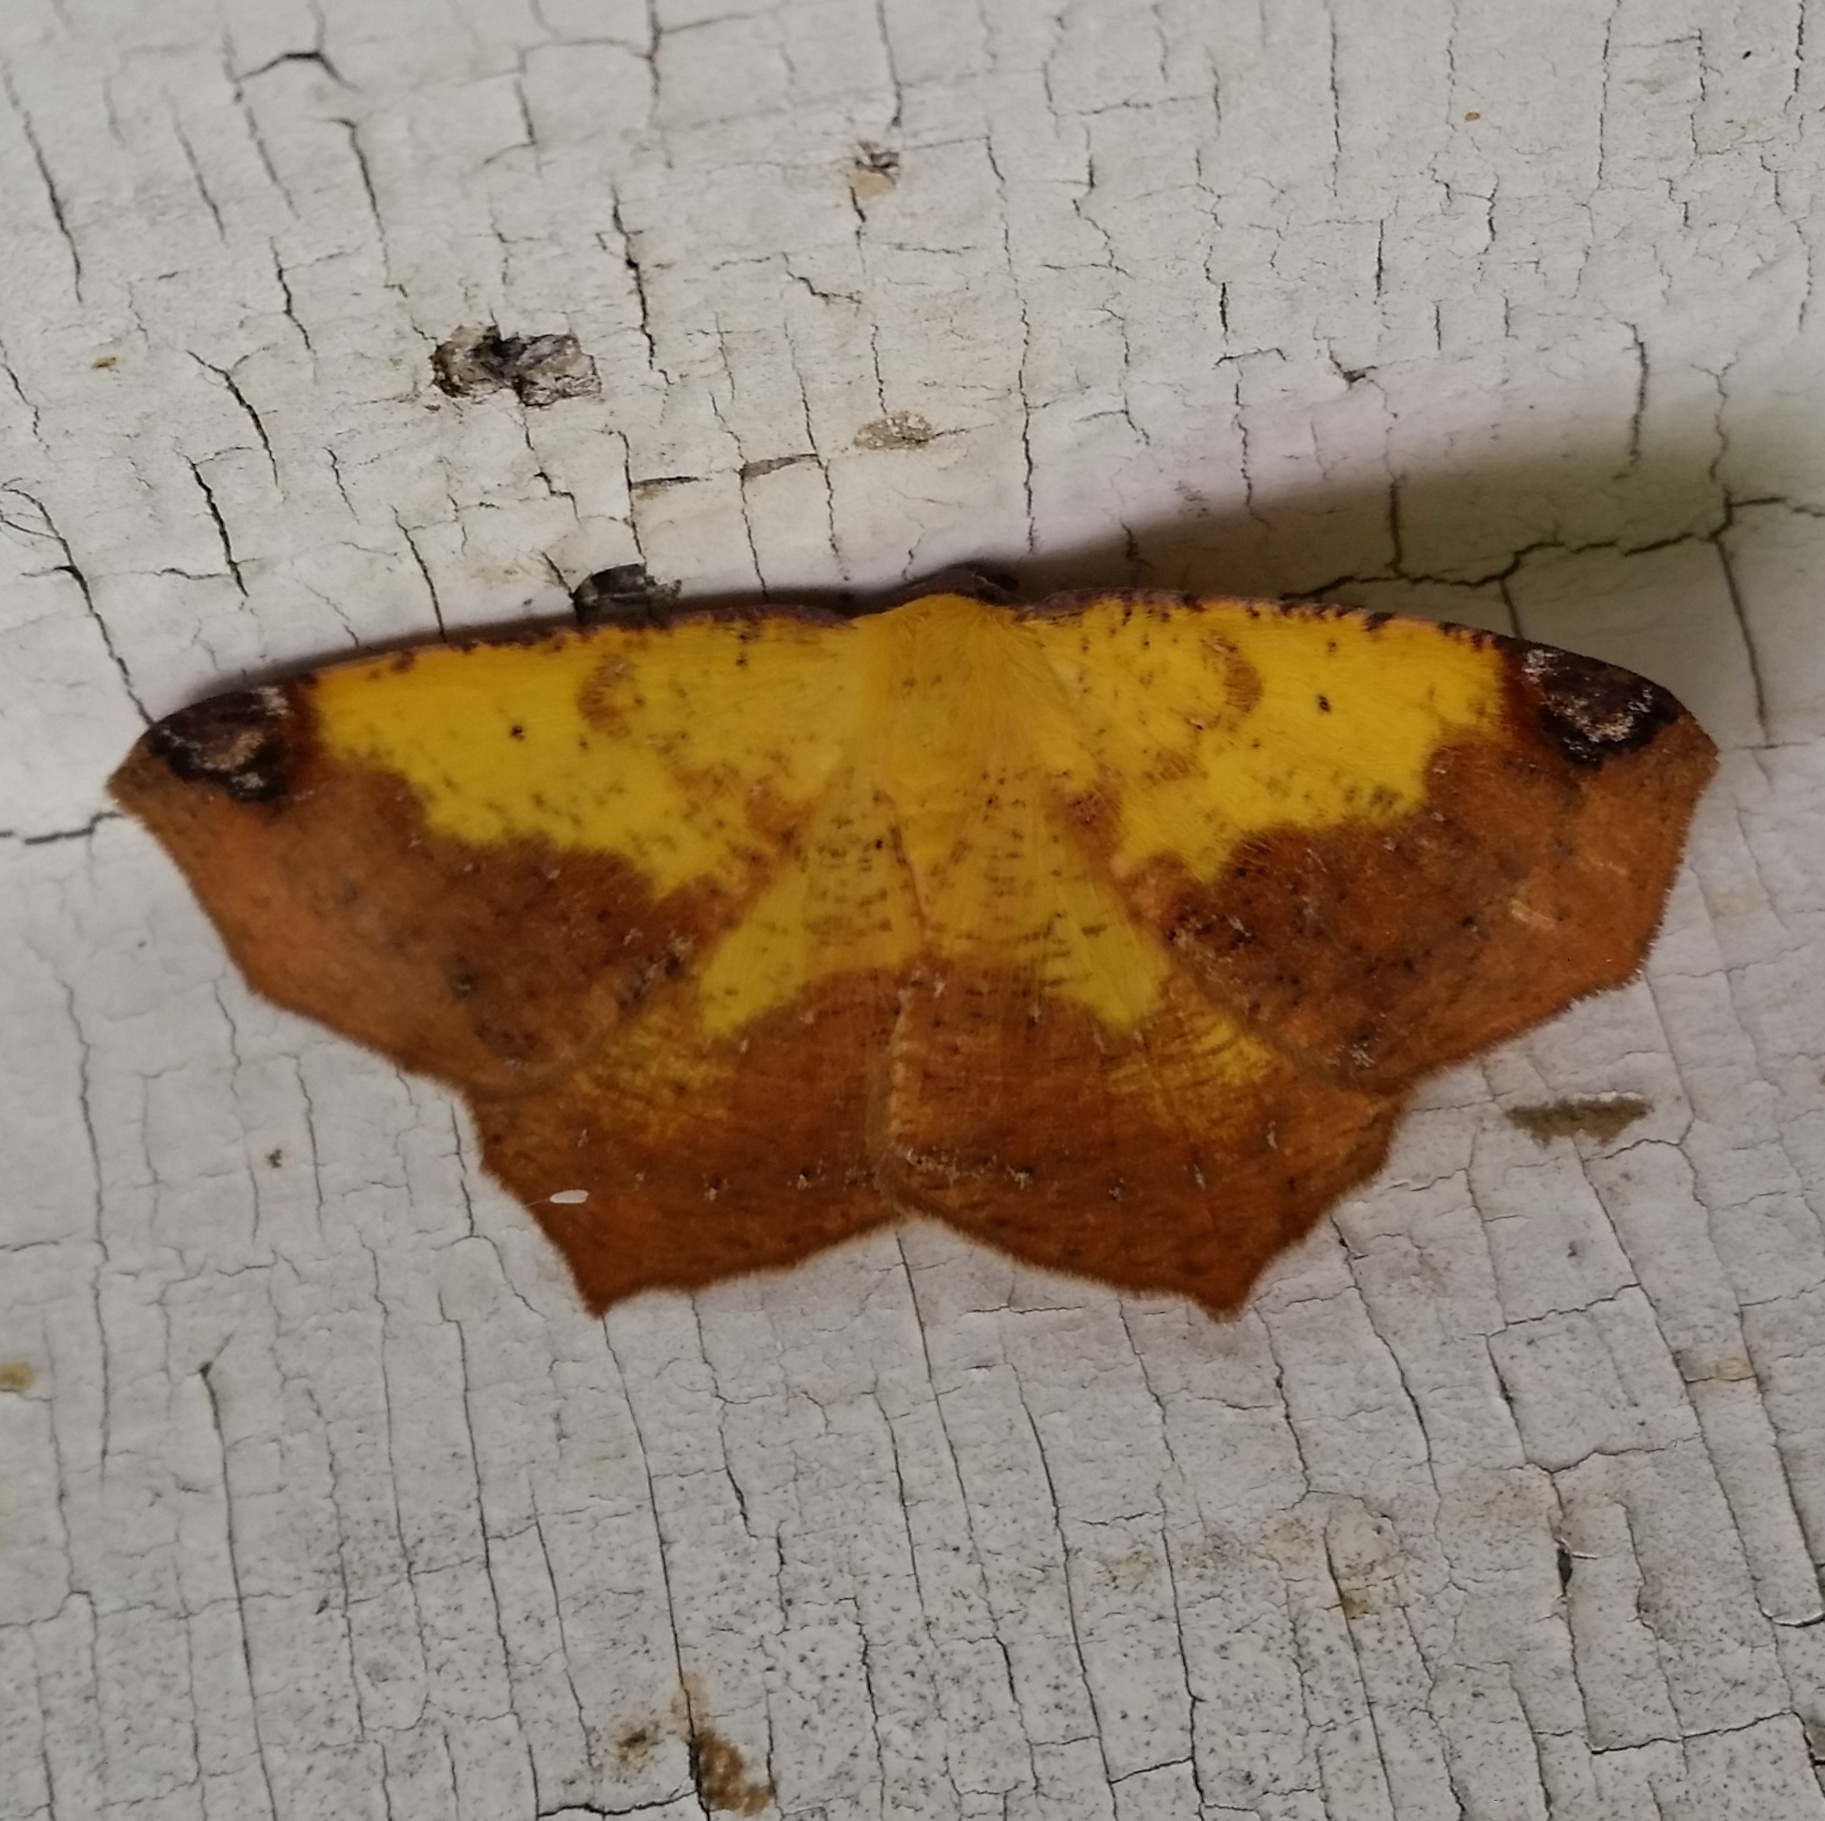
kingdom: Animalia
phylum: Arthropoda
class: Insecta
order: Lepidoptera
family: Geometridae
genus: Antepione
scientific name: Antepione thisoaria
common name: Variable antipione
